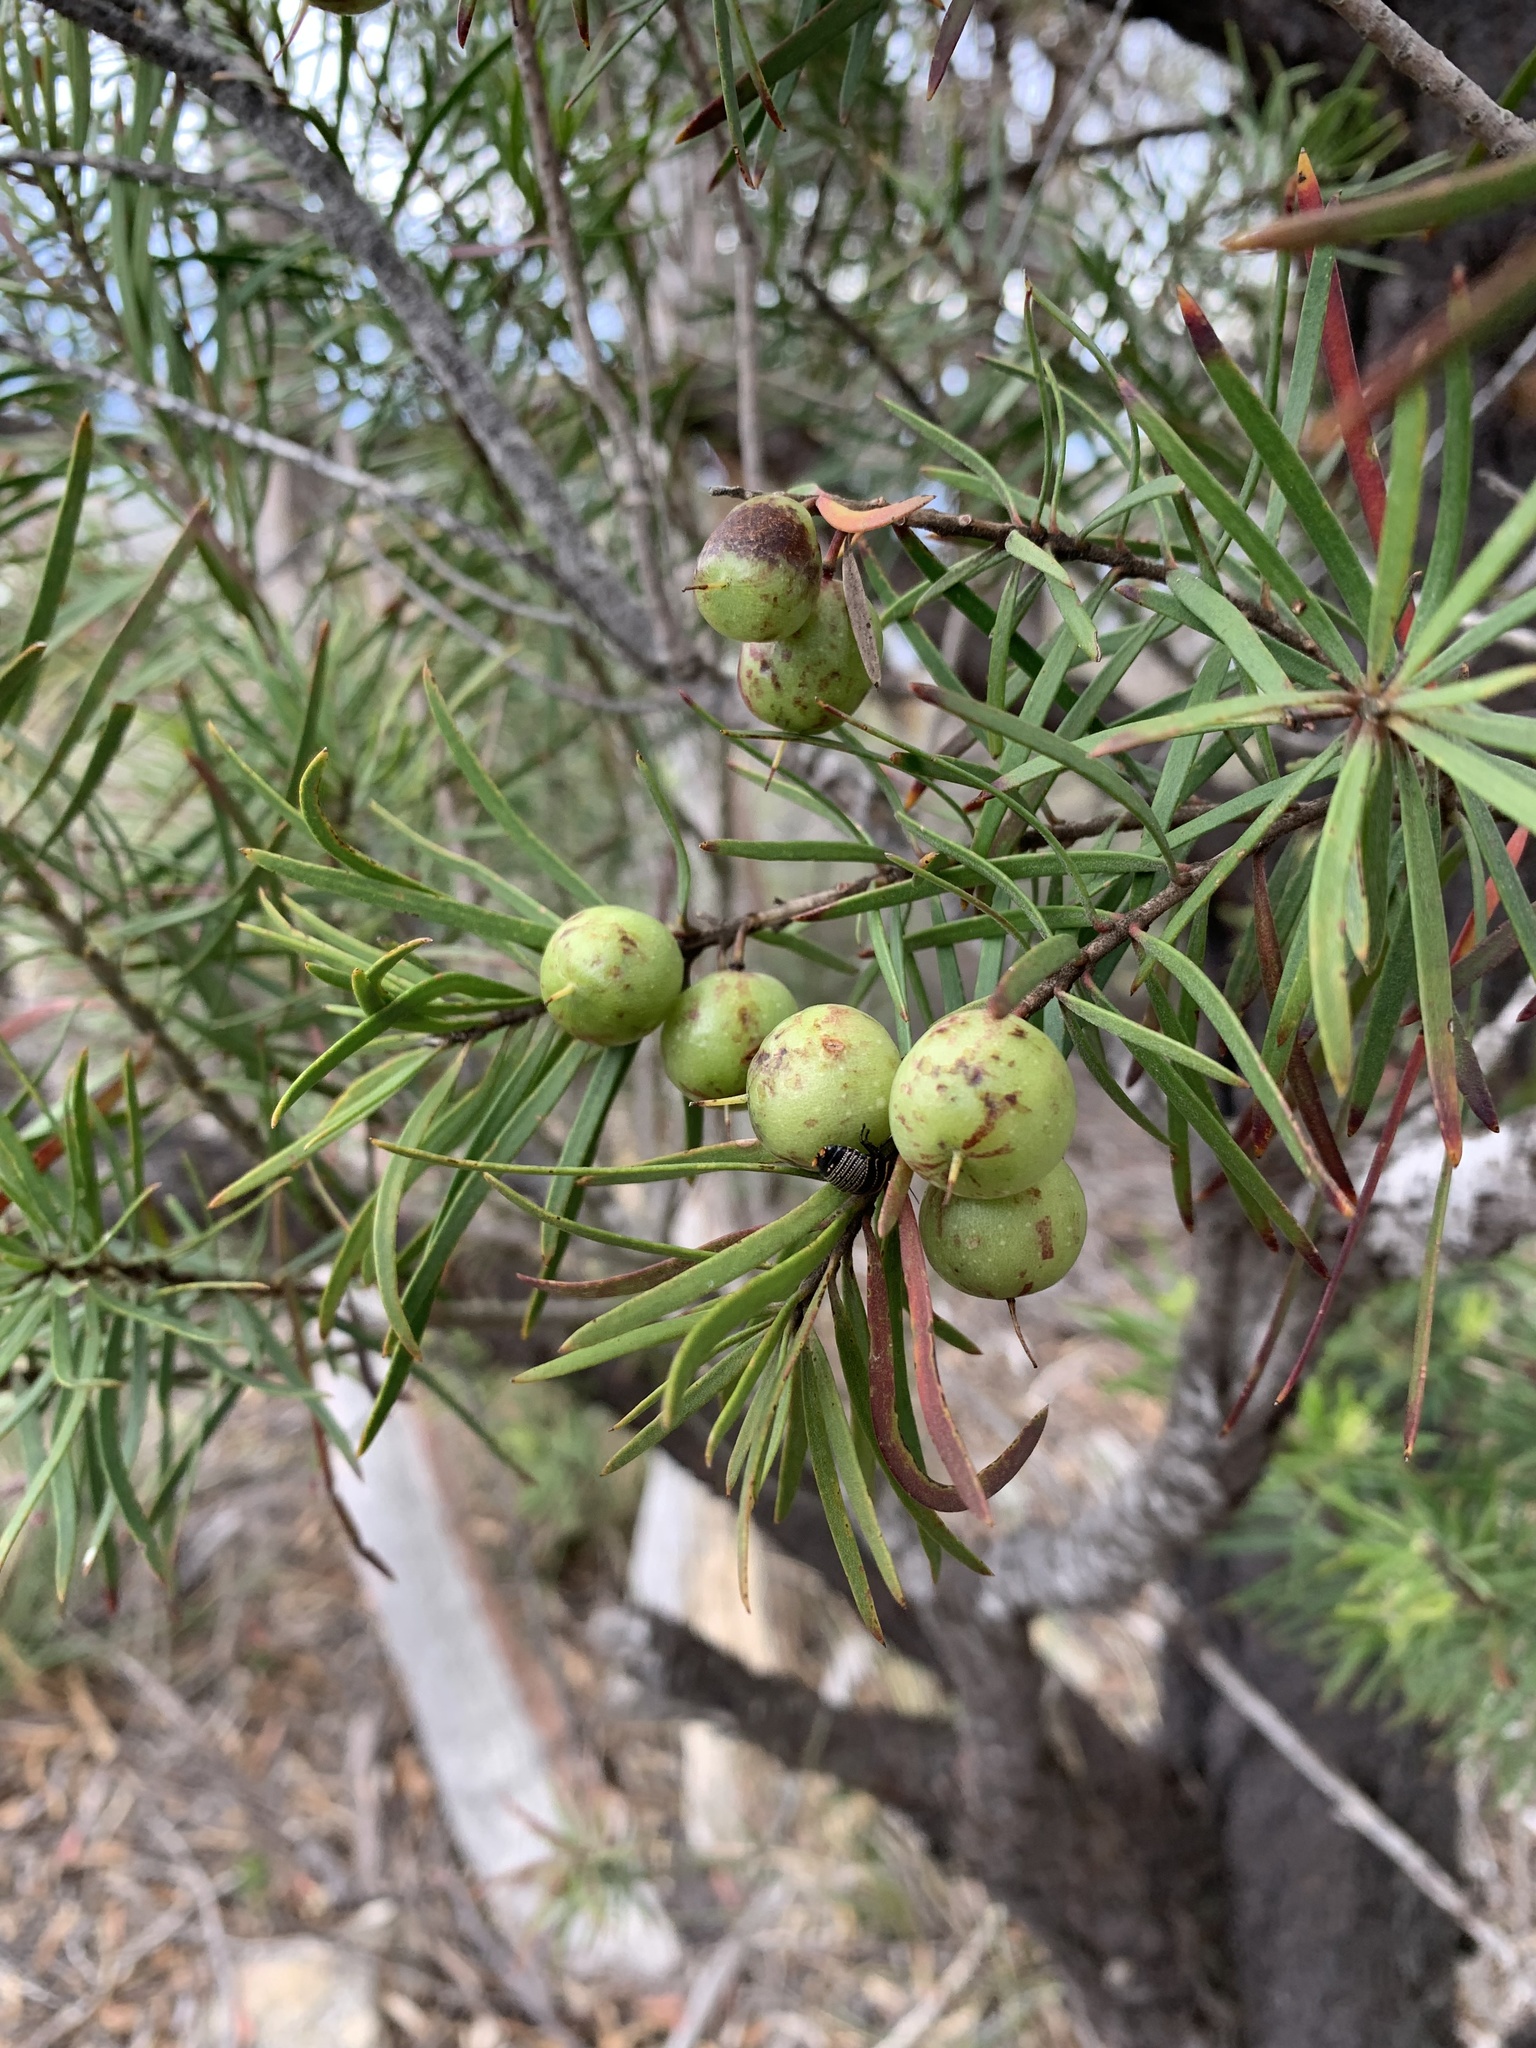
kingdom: Plantae
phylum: Tracheophyta
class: Magnoliopsida
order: Proteales
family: Proteaceae
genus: Persoonia
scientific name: Persoonia linearis
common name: Narrow-leaf geebung
